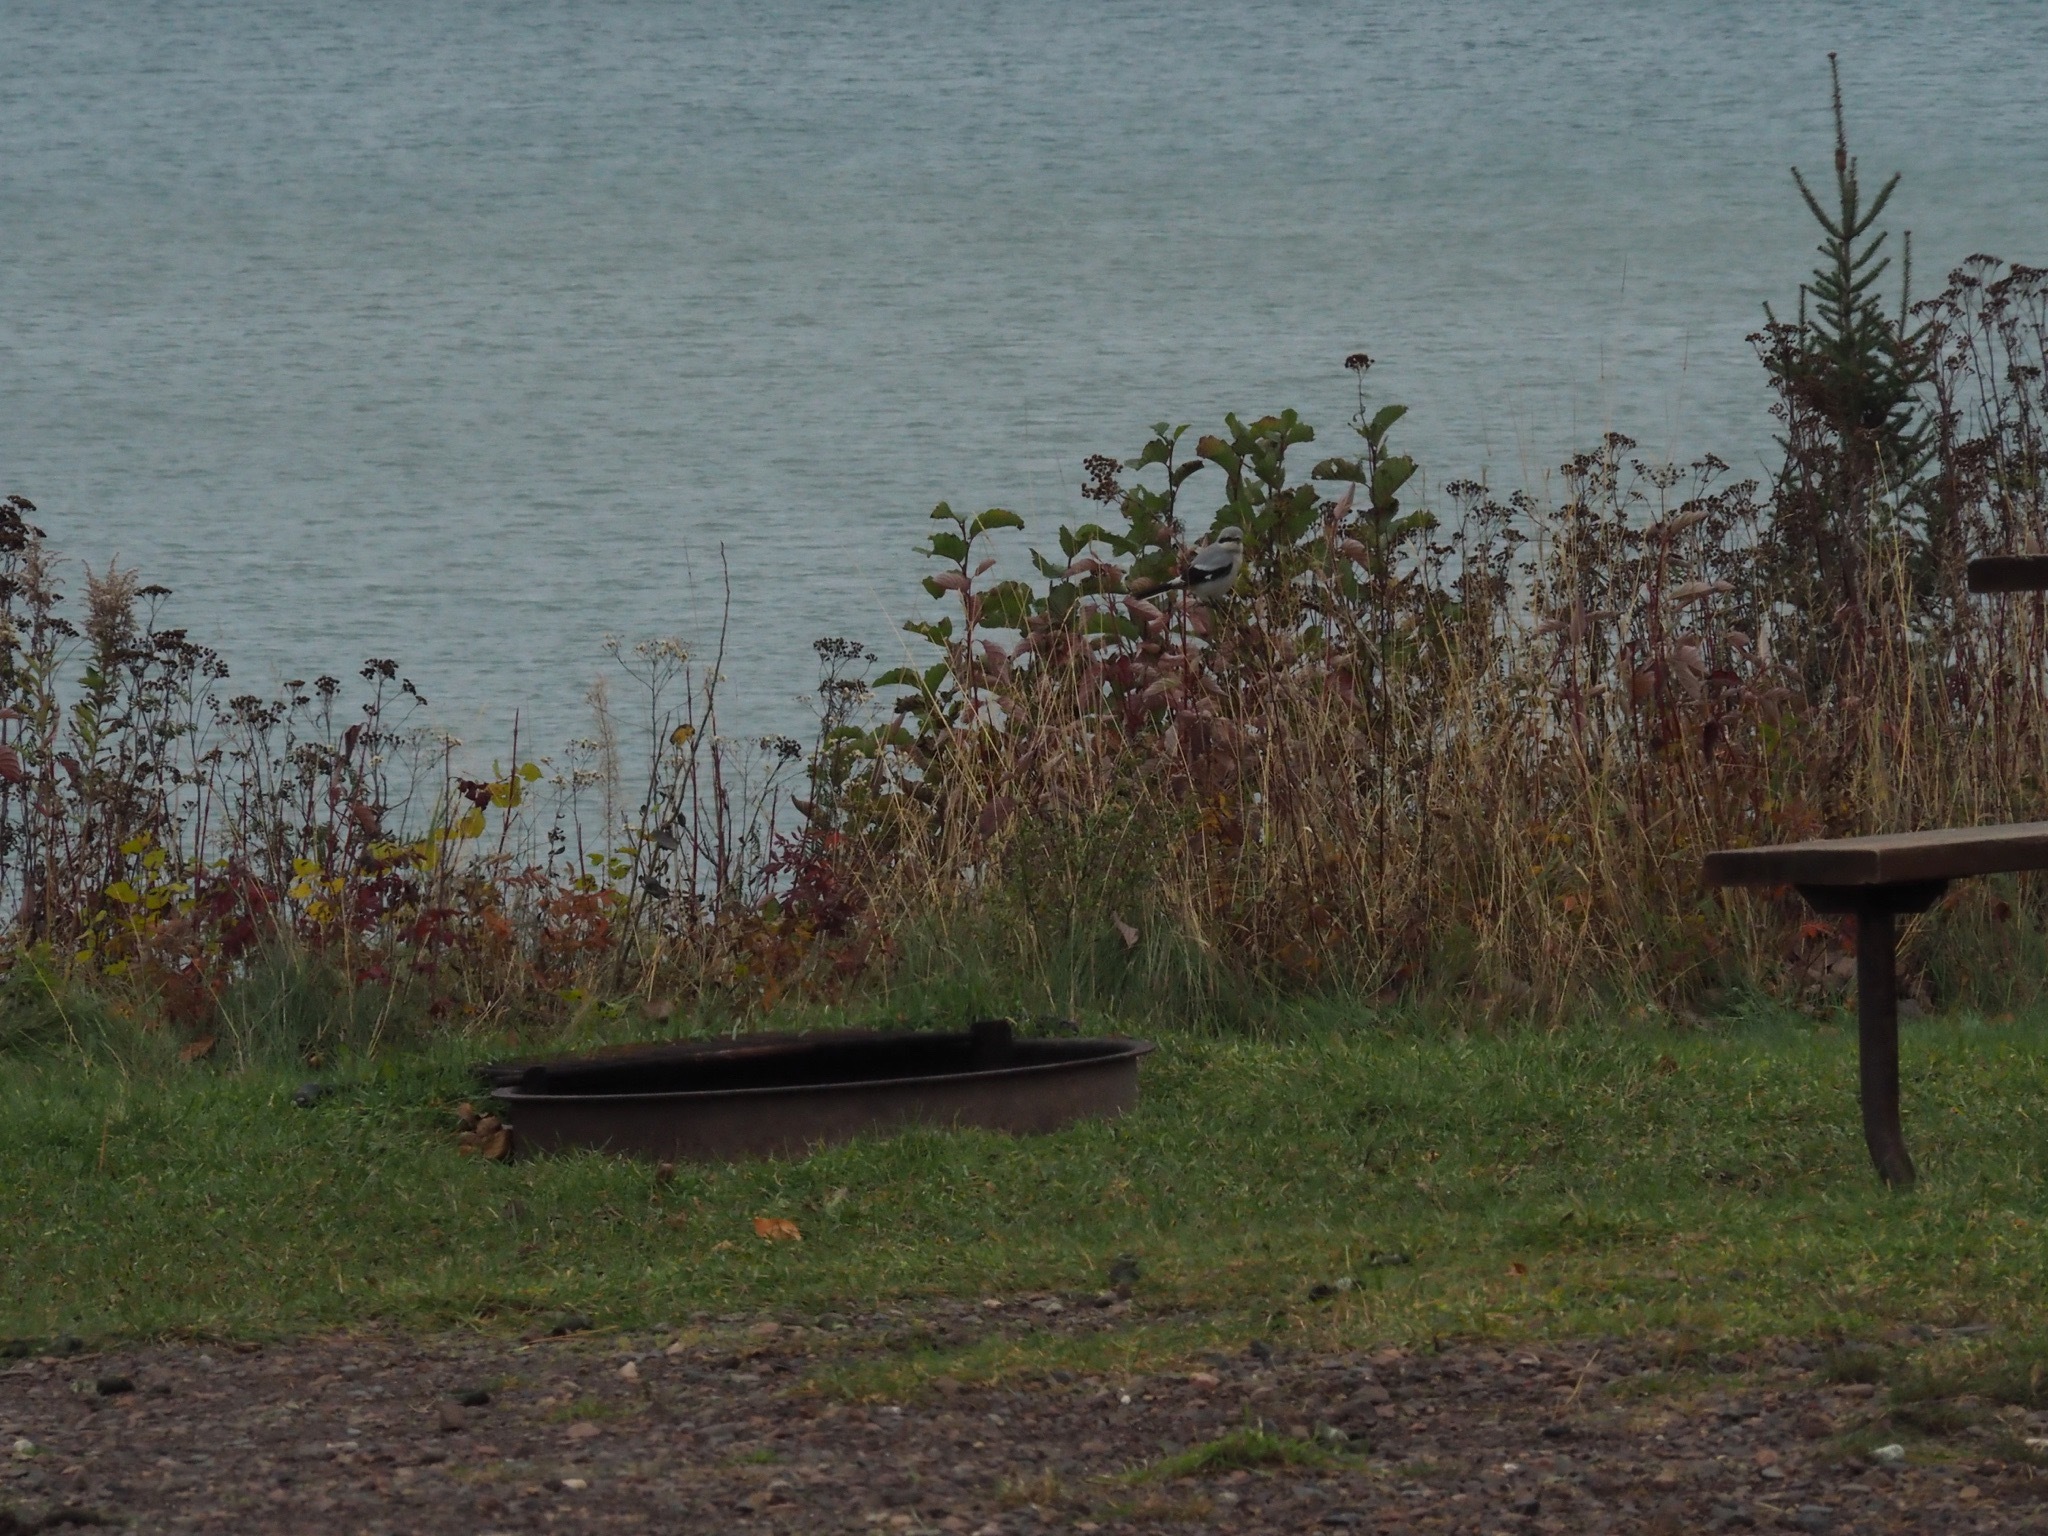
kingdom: Animalia
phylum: Chordata
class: Aves
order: Passeriformes
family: Laniidae
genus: Lanius
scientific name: Lanius borealis
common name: Northern shrike
